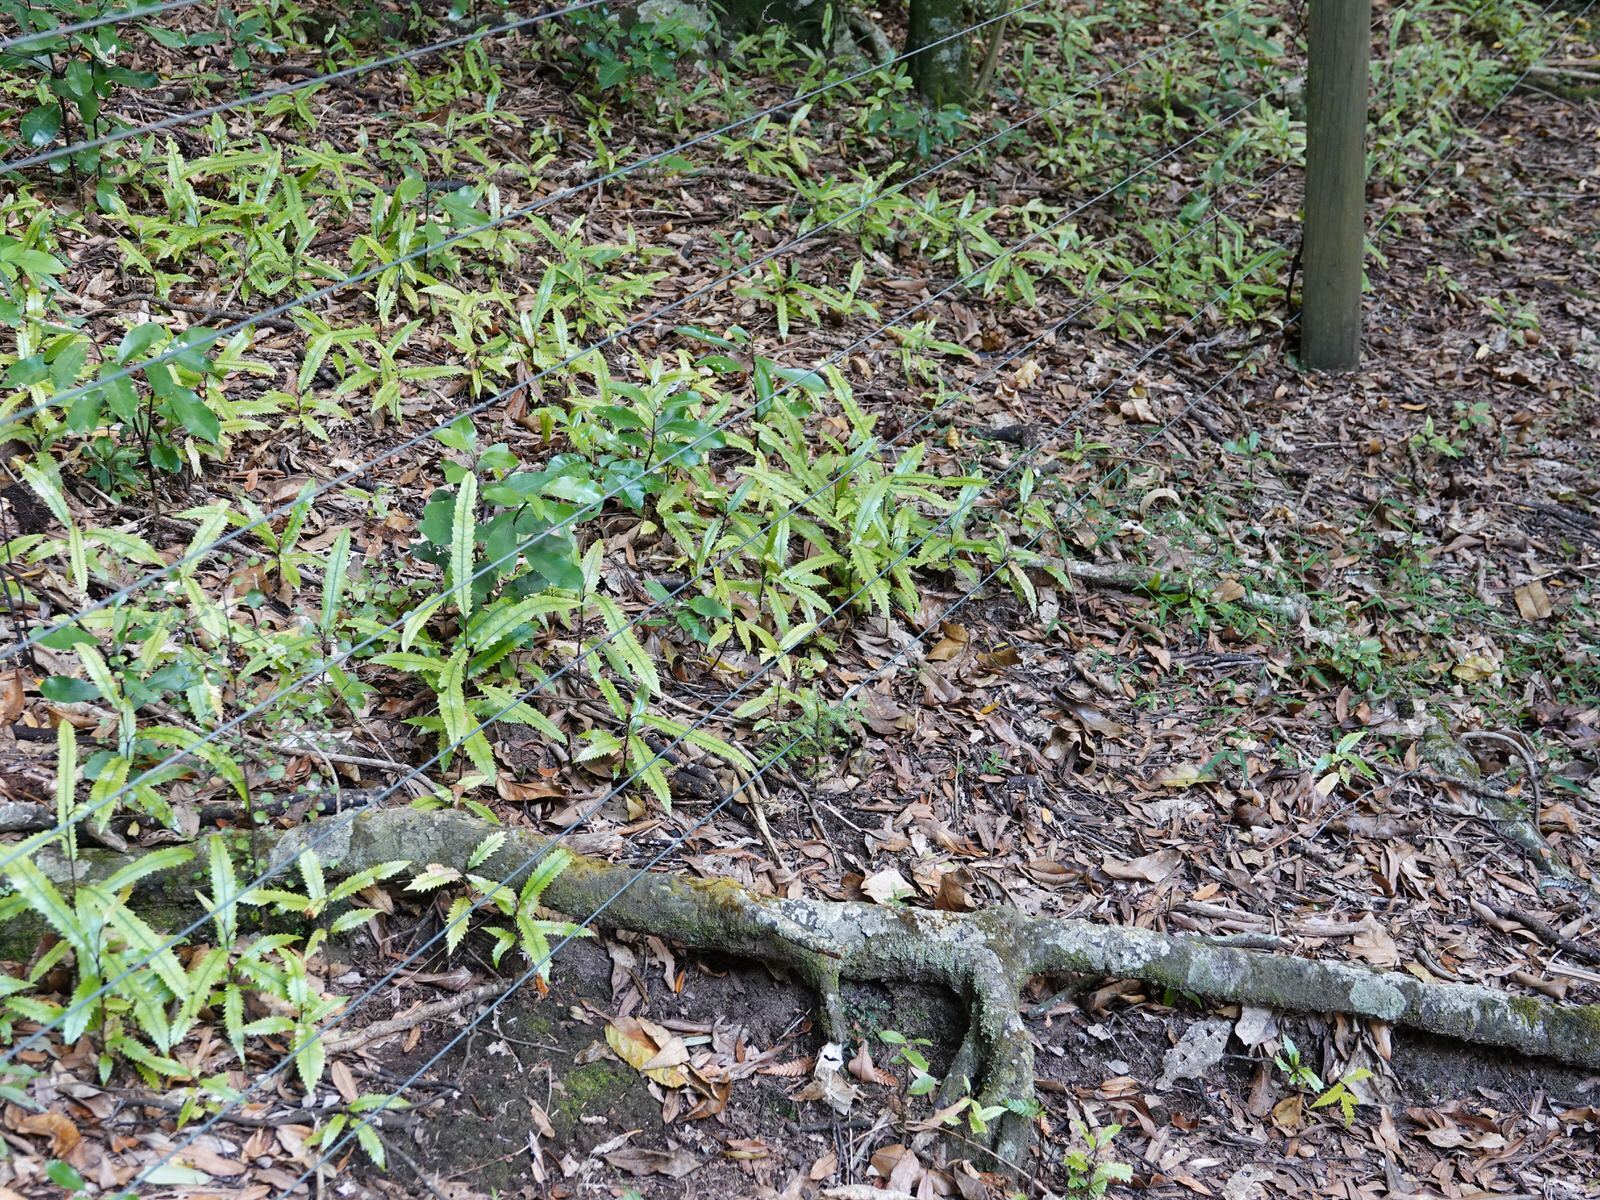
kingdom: Plantae
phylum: Tracheophyta
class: Magnoliopsida
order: Proteales
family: Proteaceae
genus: Knightia
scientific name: Knightia excelsa
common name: New zealand-honeysuckle
